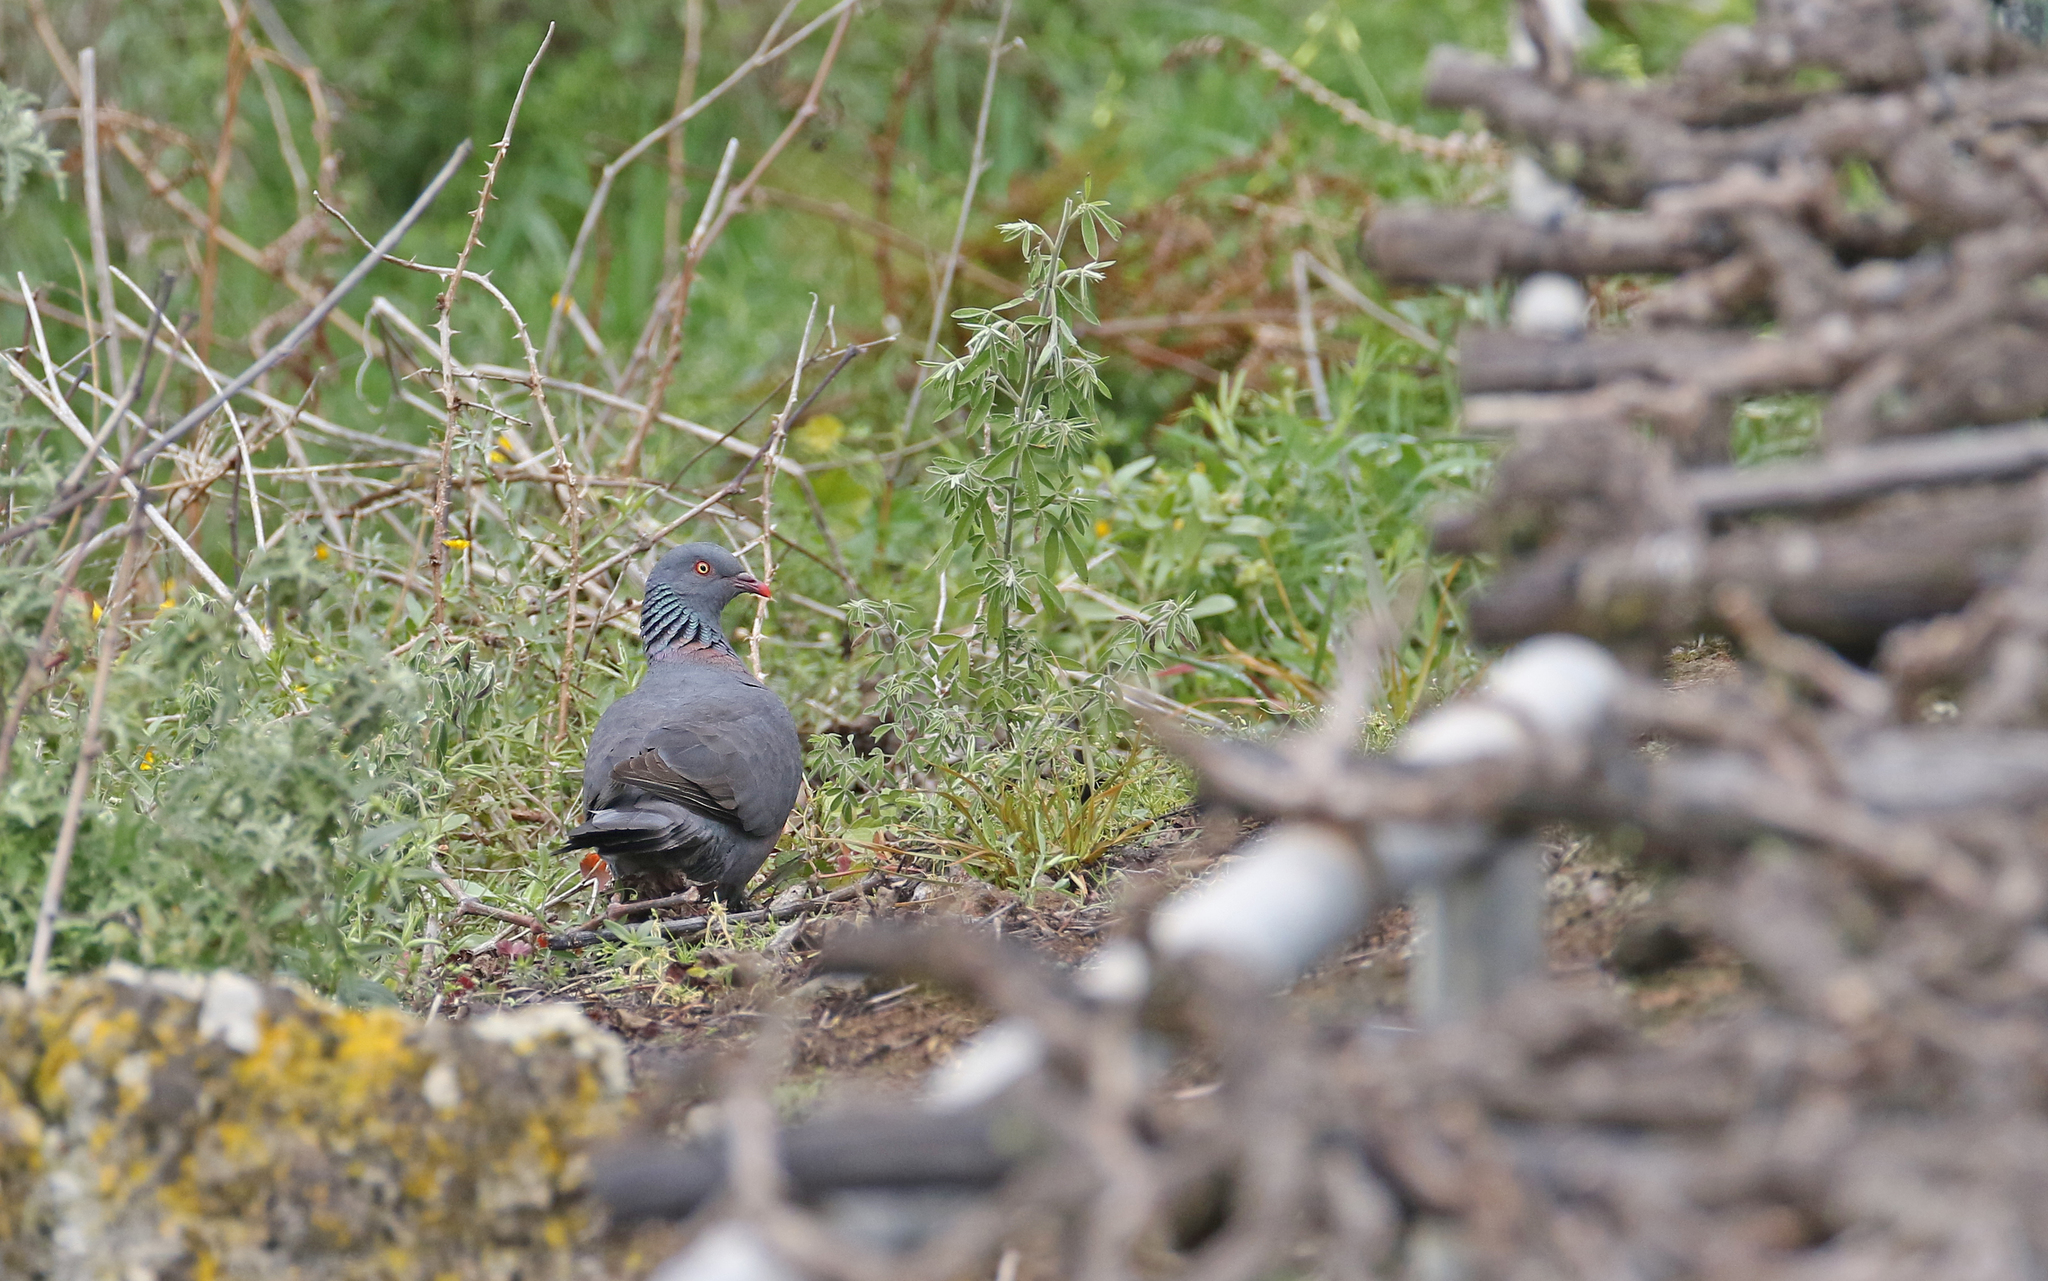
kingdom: Animalia
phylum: Chordata
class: Aves
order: Columbiformes
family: Columbidae
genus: Columba
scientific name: Columba bollii
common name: Bolle's pigeon
